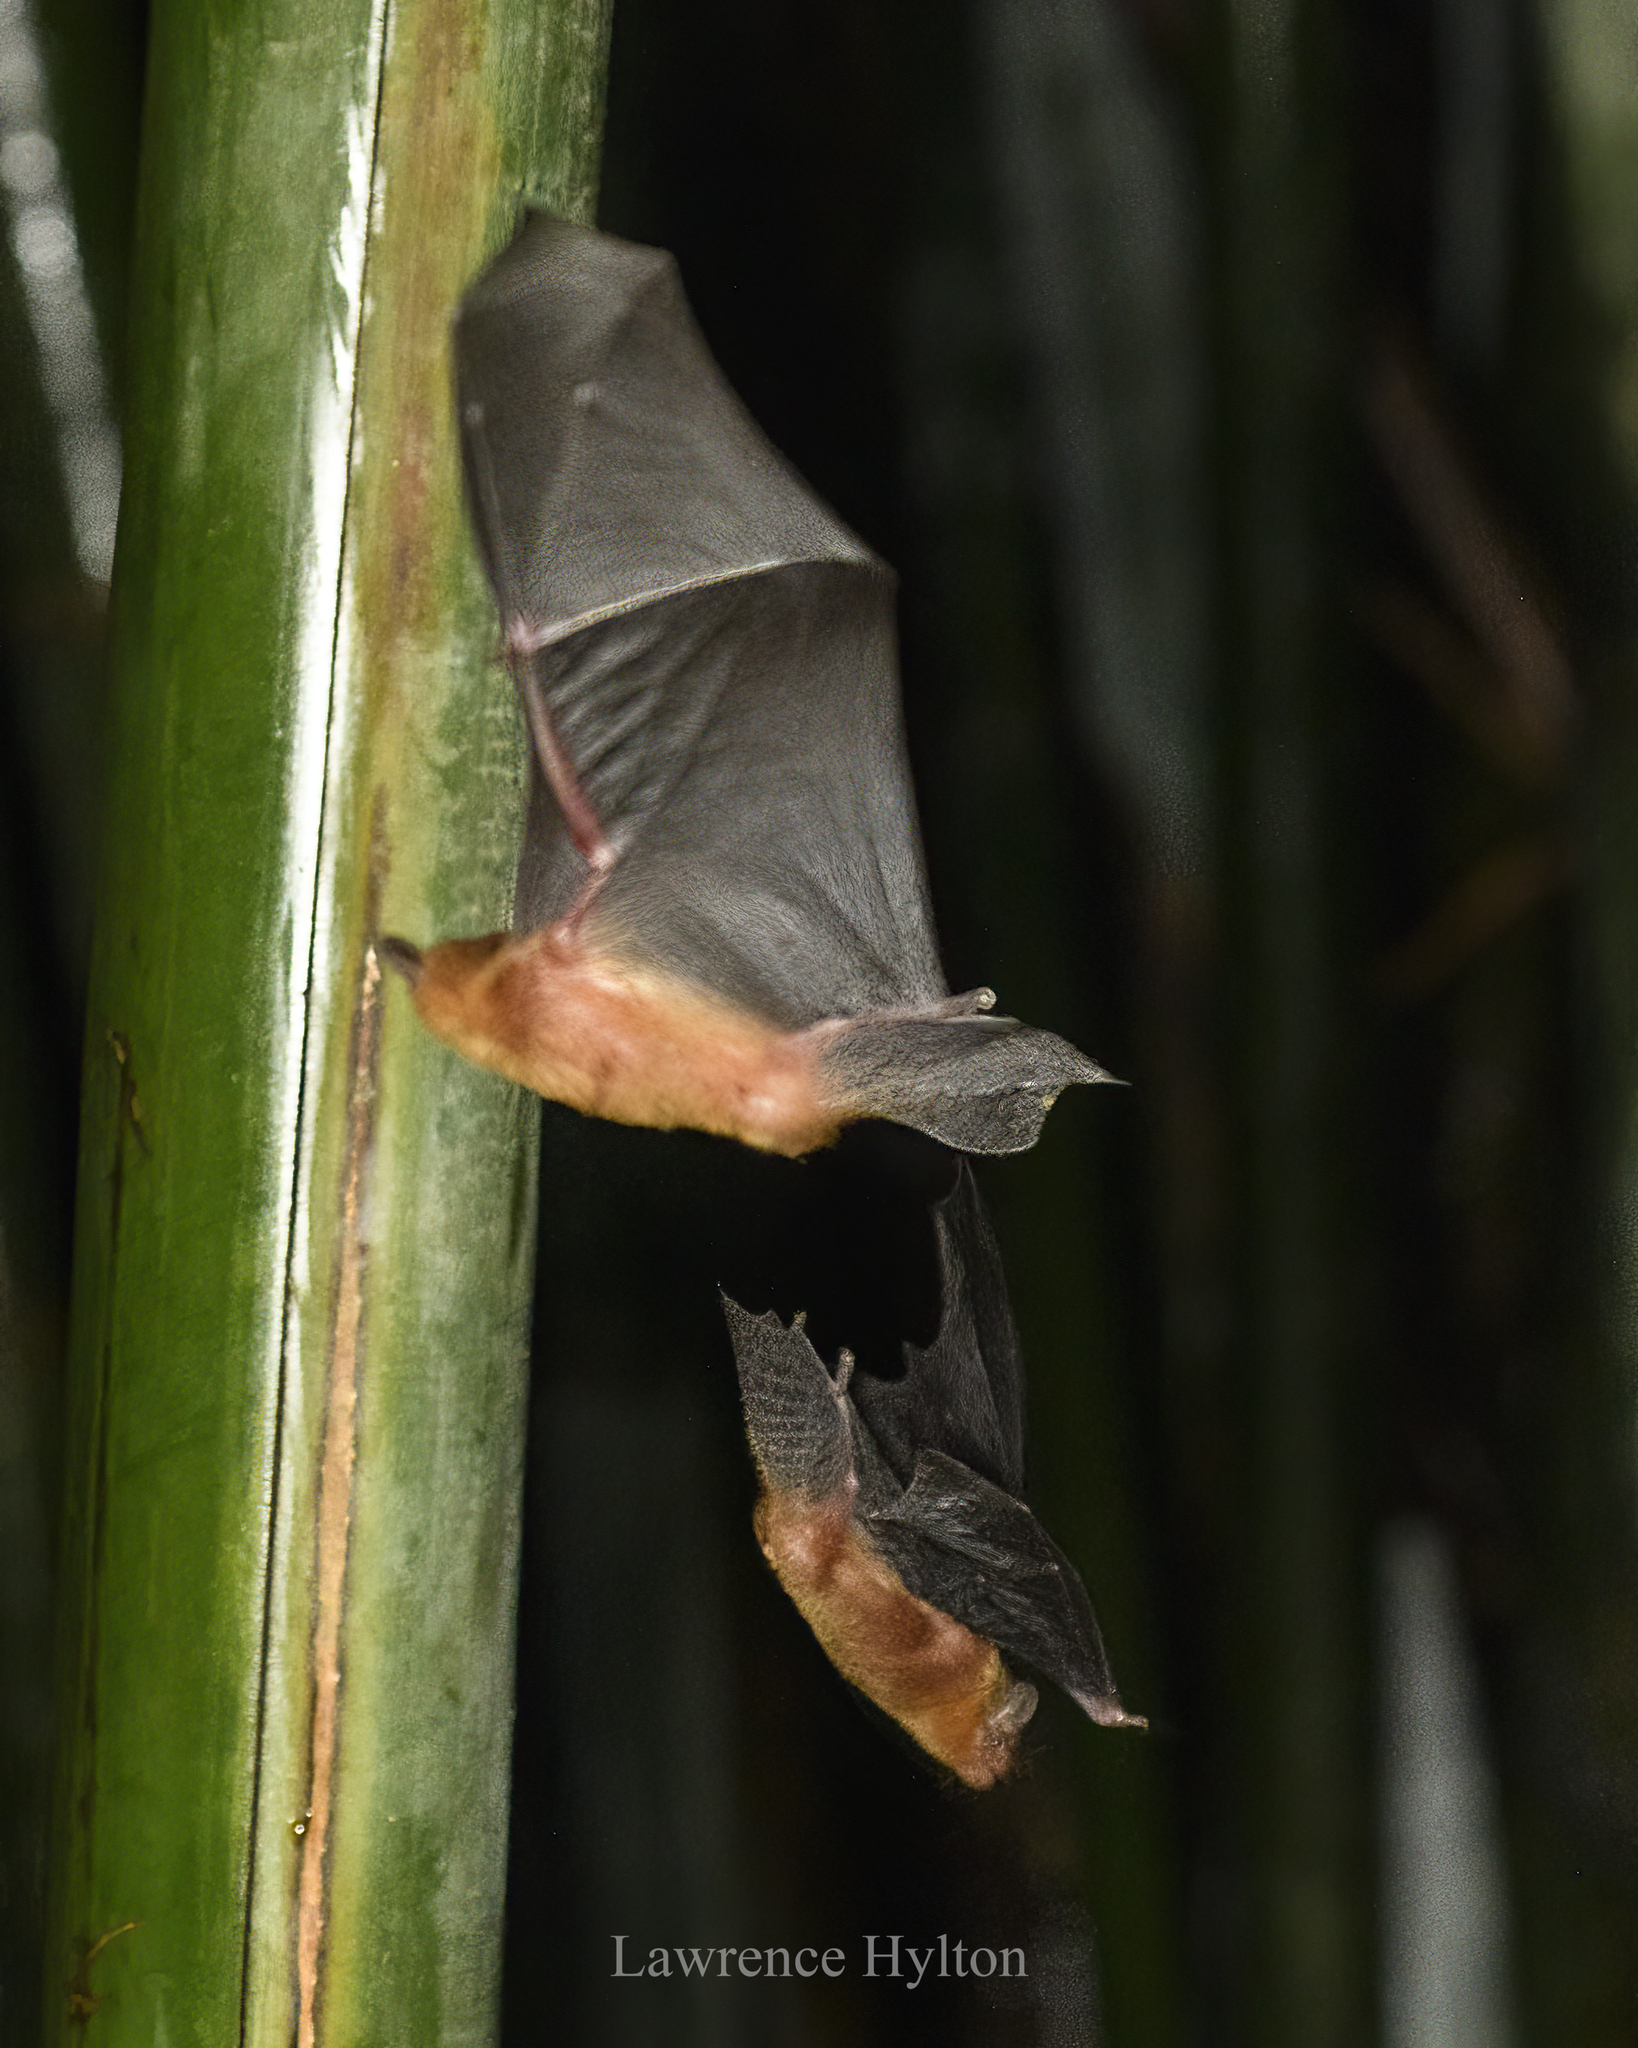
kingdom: Animalia
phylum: Chordata
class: Mammalia
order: Chiroptera
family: Vespertilionidae
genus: Tylonycteris
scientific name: Tylonycteris fulvida
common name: Amber bamboo bat
